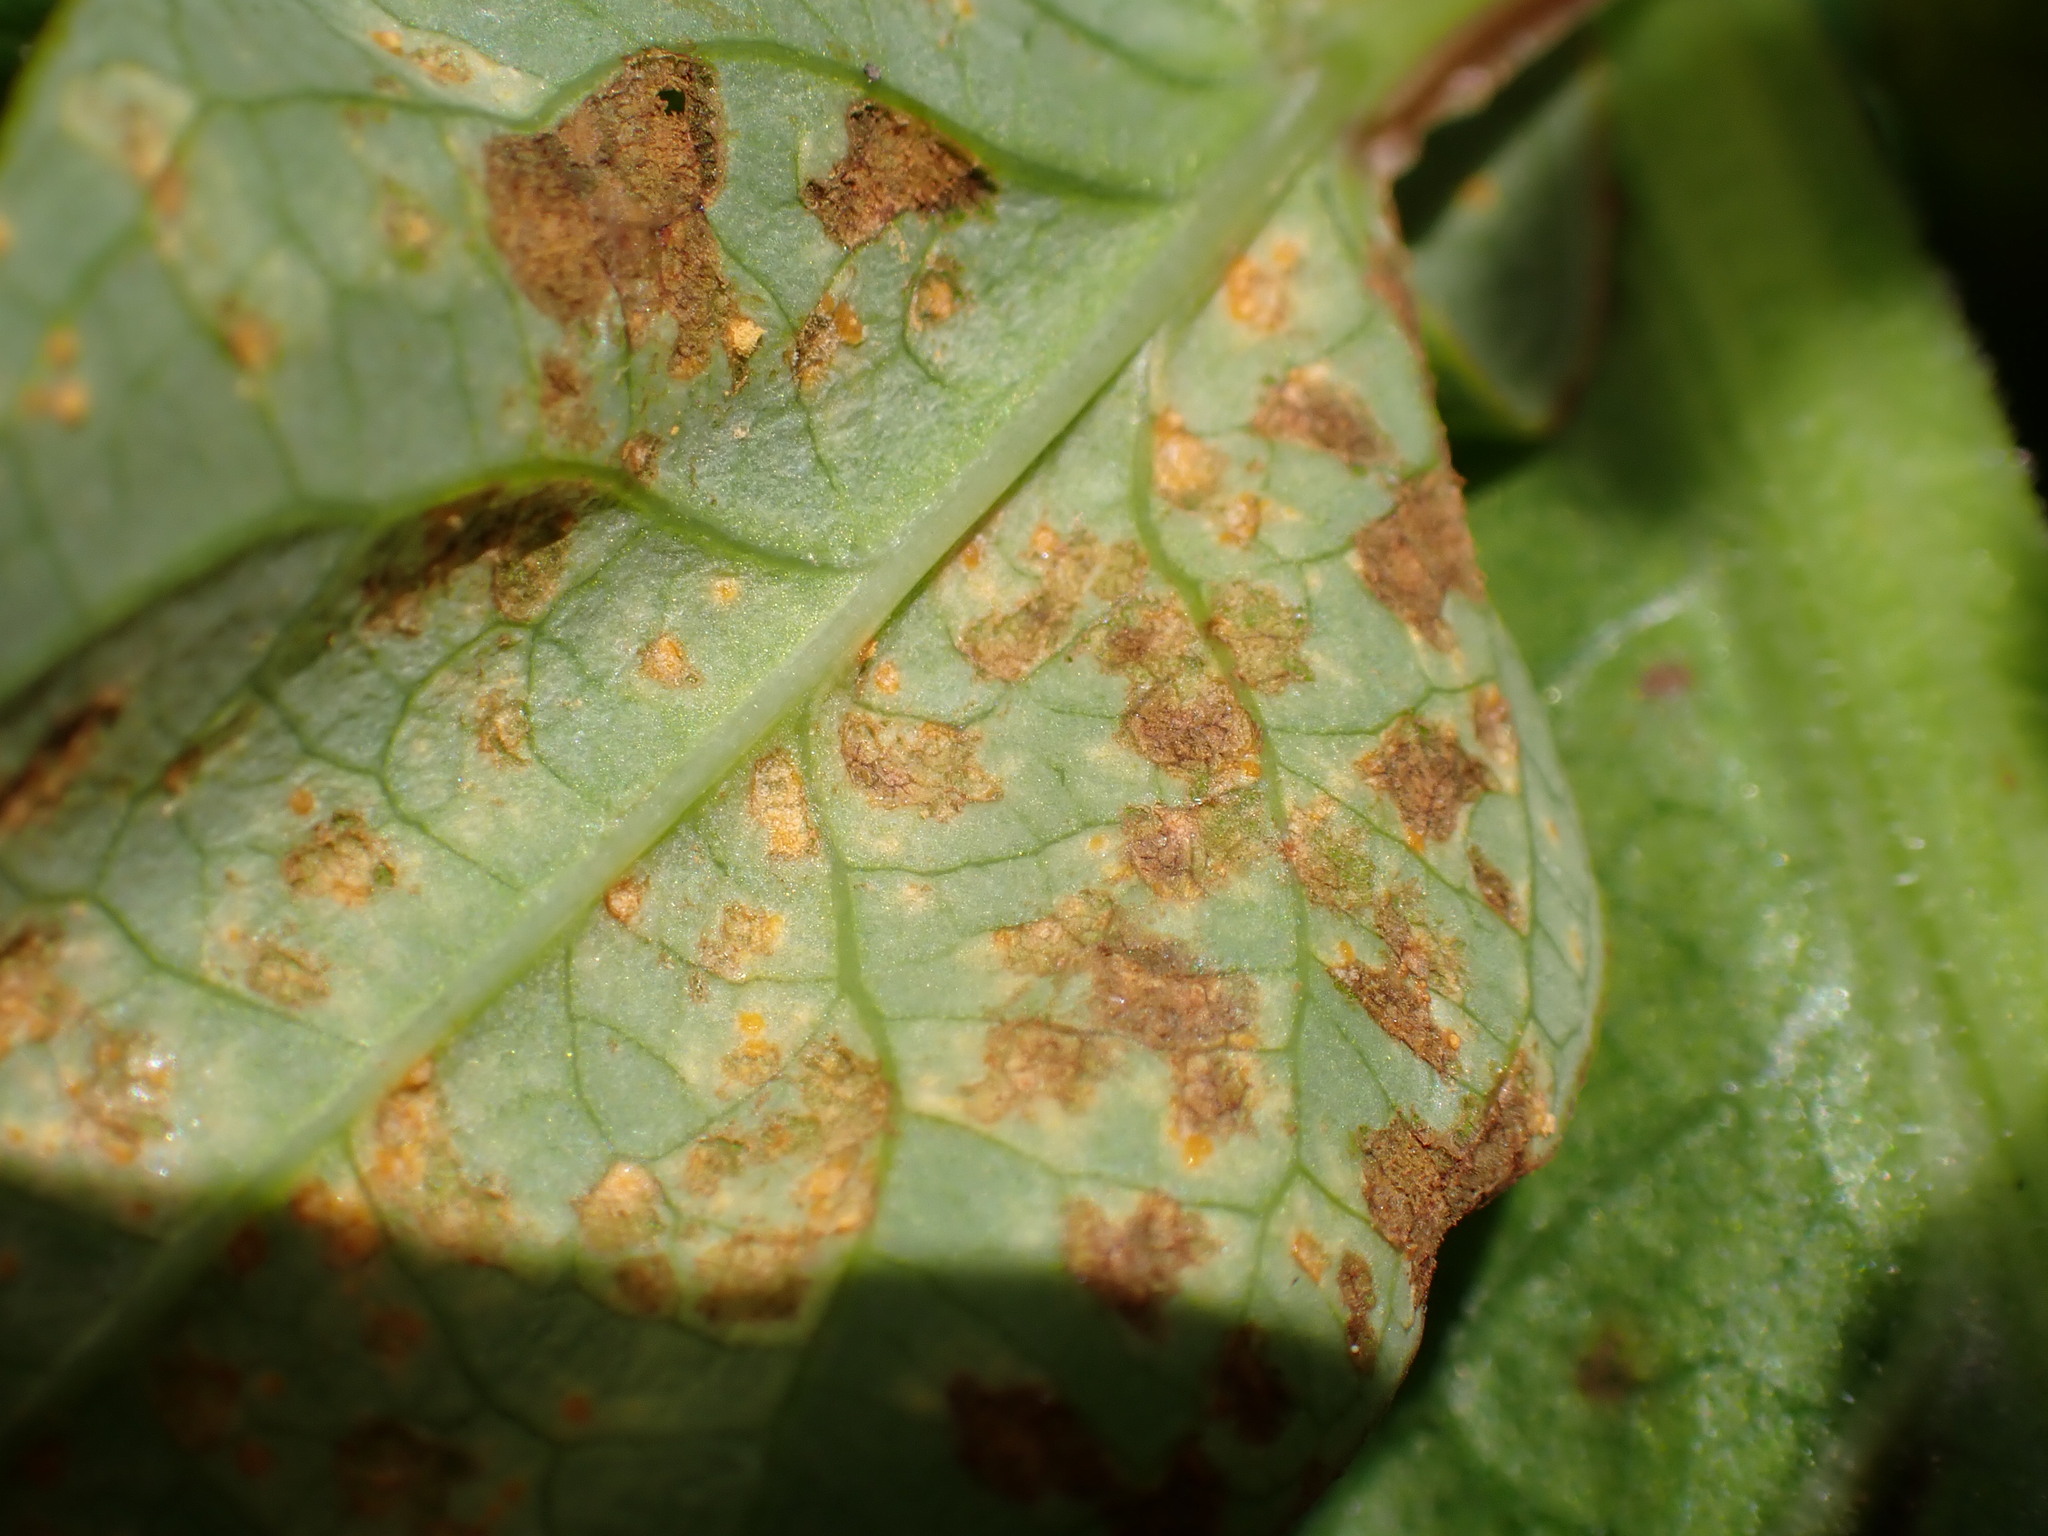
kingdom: Fungi
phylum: Basidiomycota
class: Pucciniomycetes
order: Pucciniales
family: Melampsoraceae
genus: Melampsora
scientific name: Melampsora
